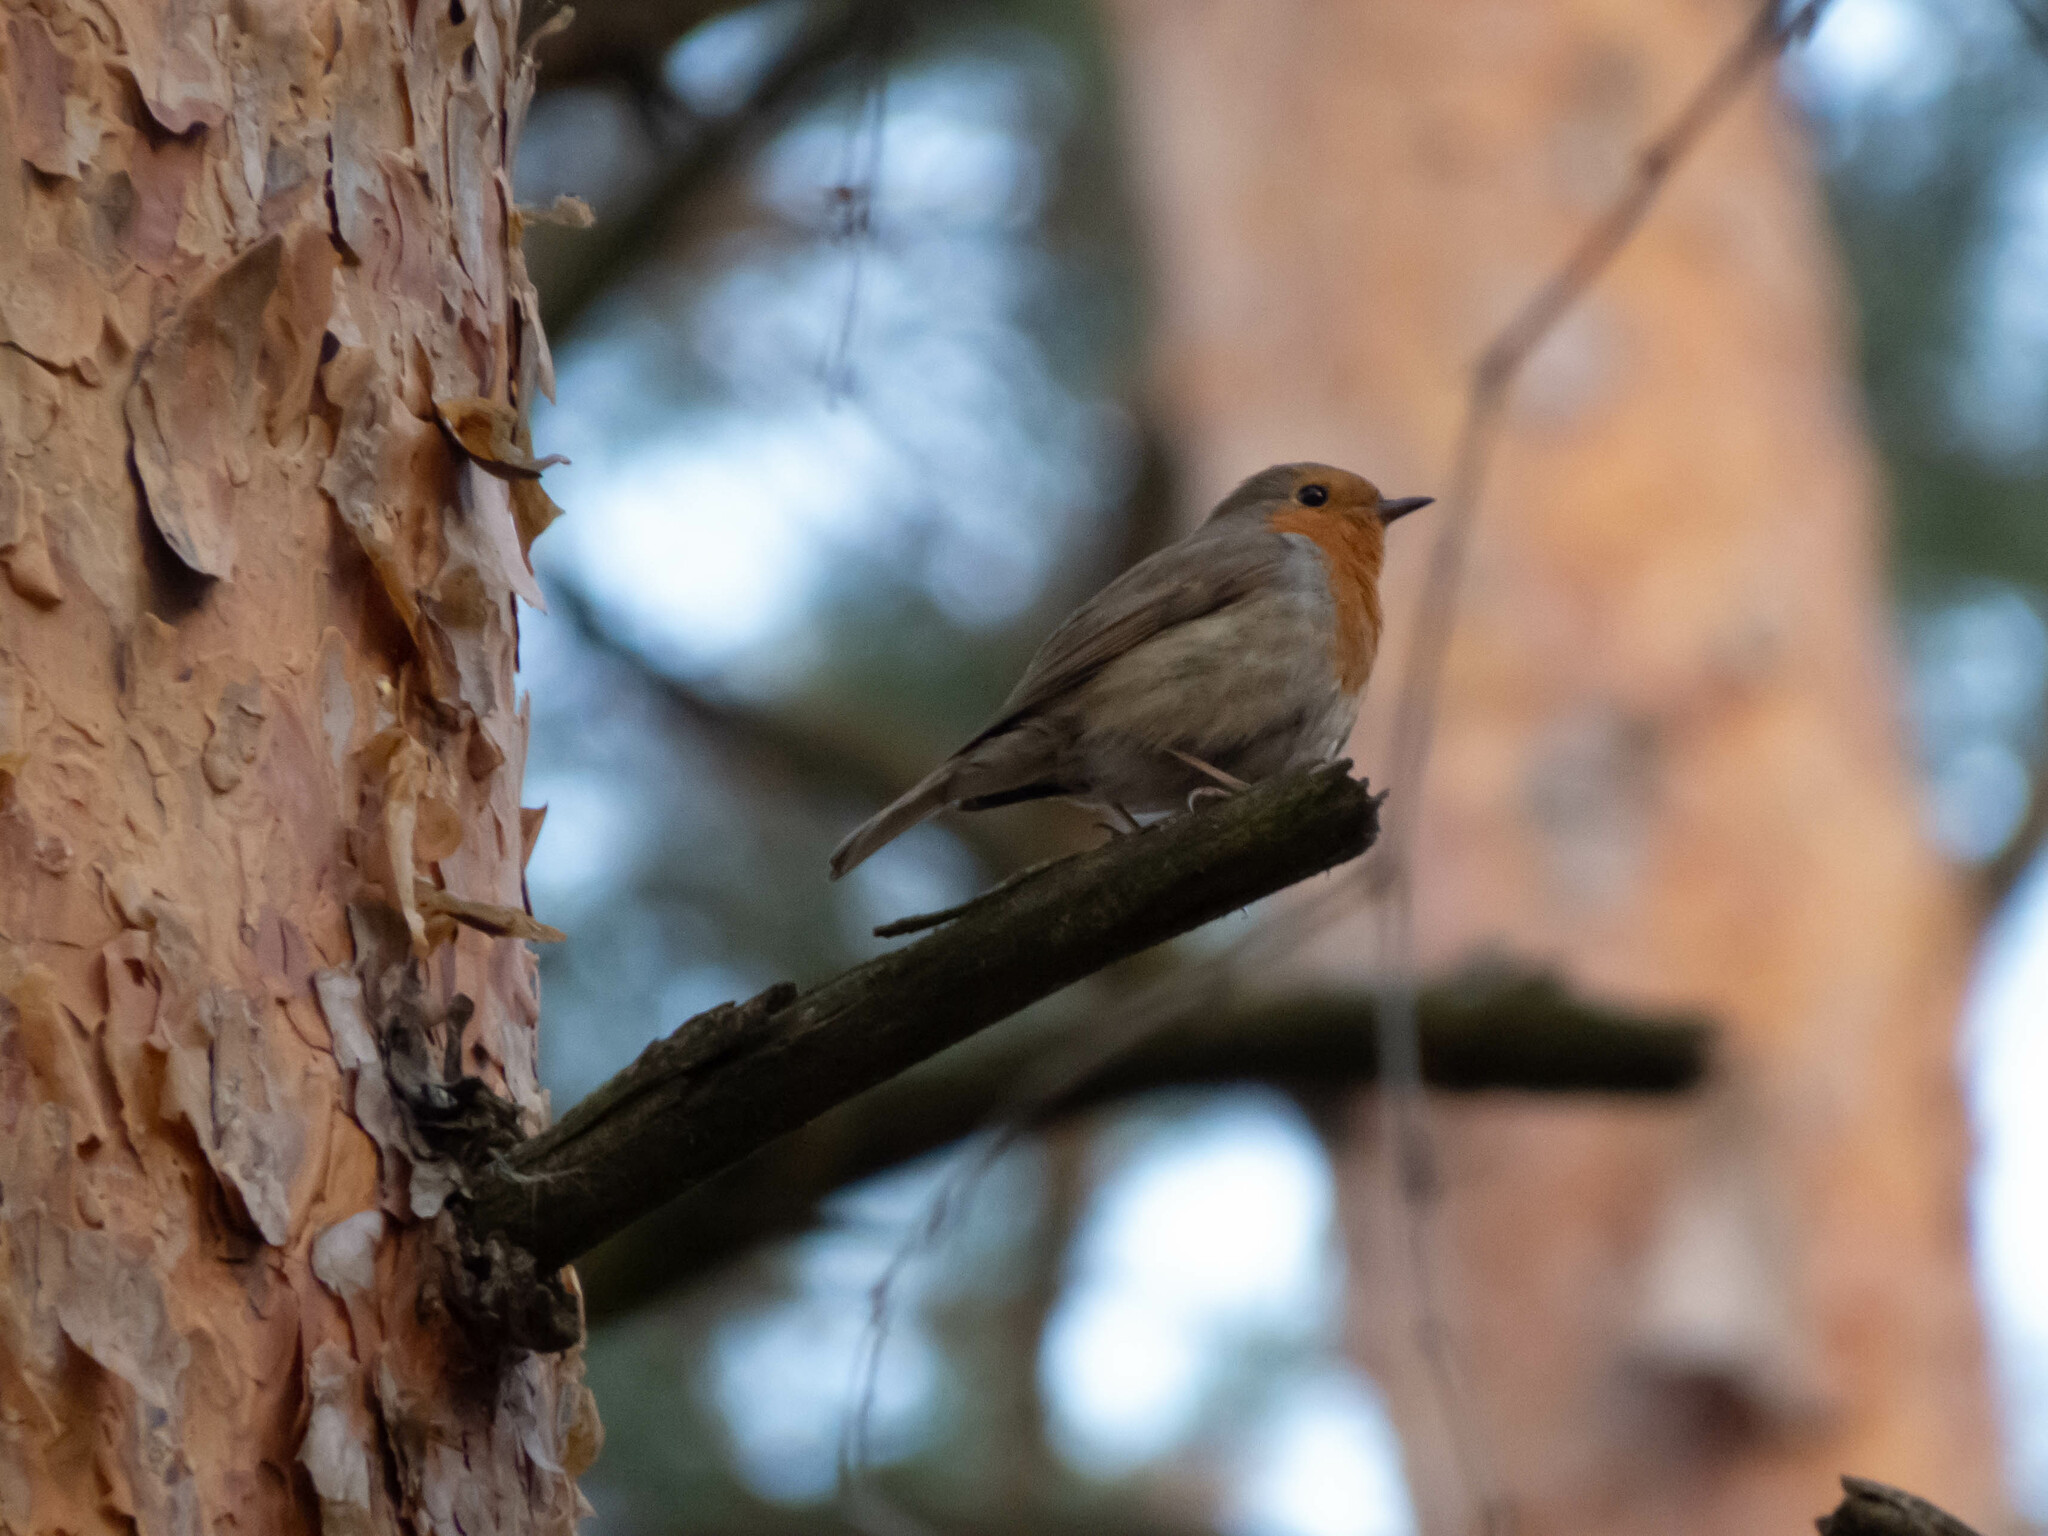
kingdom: Animalia
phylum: Chordata
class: Aves
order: Passeriformes
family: Muscicapidae
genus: Erithacus
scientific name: Erithacus rubecula
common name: European robin
